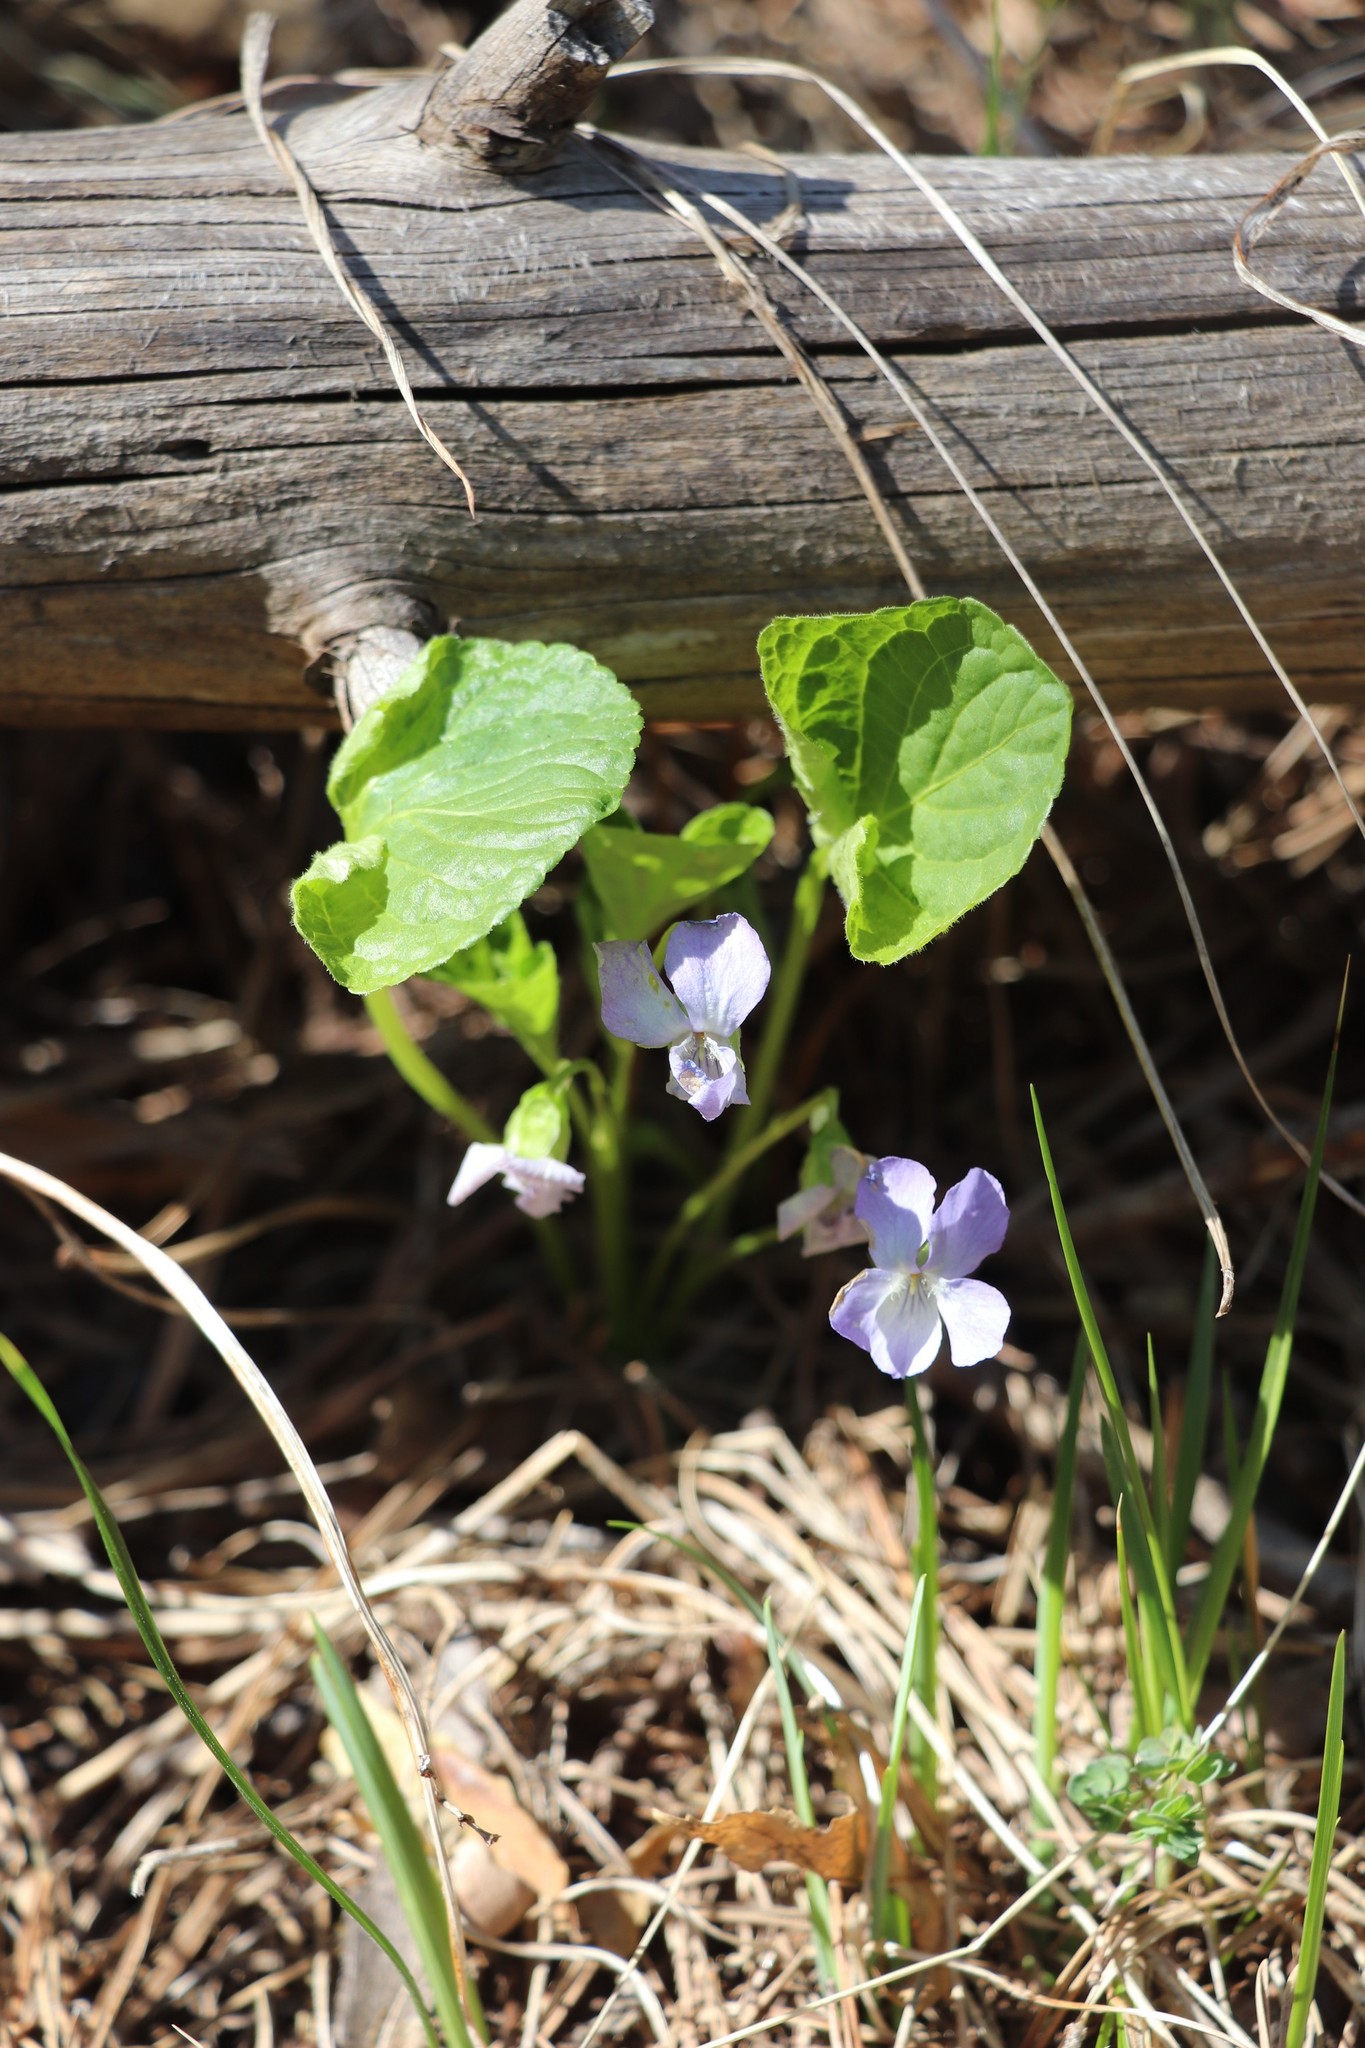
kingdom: Plantae
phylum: Tracheophyta
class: Magnoliopsida
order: Malpighiales
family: Violaceae
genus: Viola
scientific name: Viola mirabilis
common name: Wonder violet
